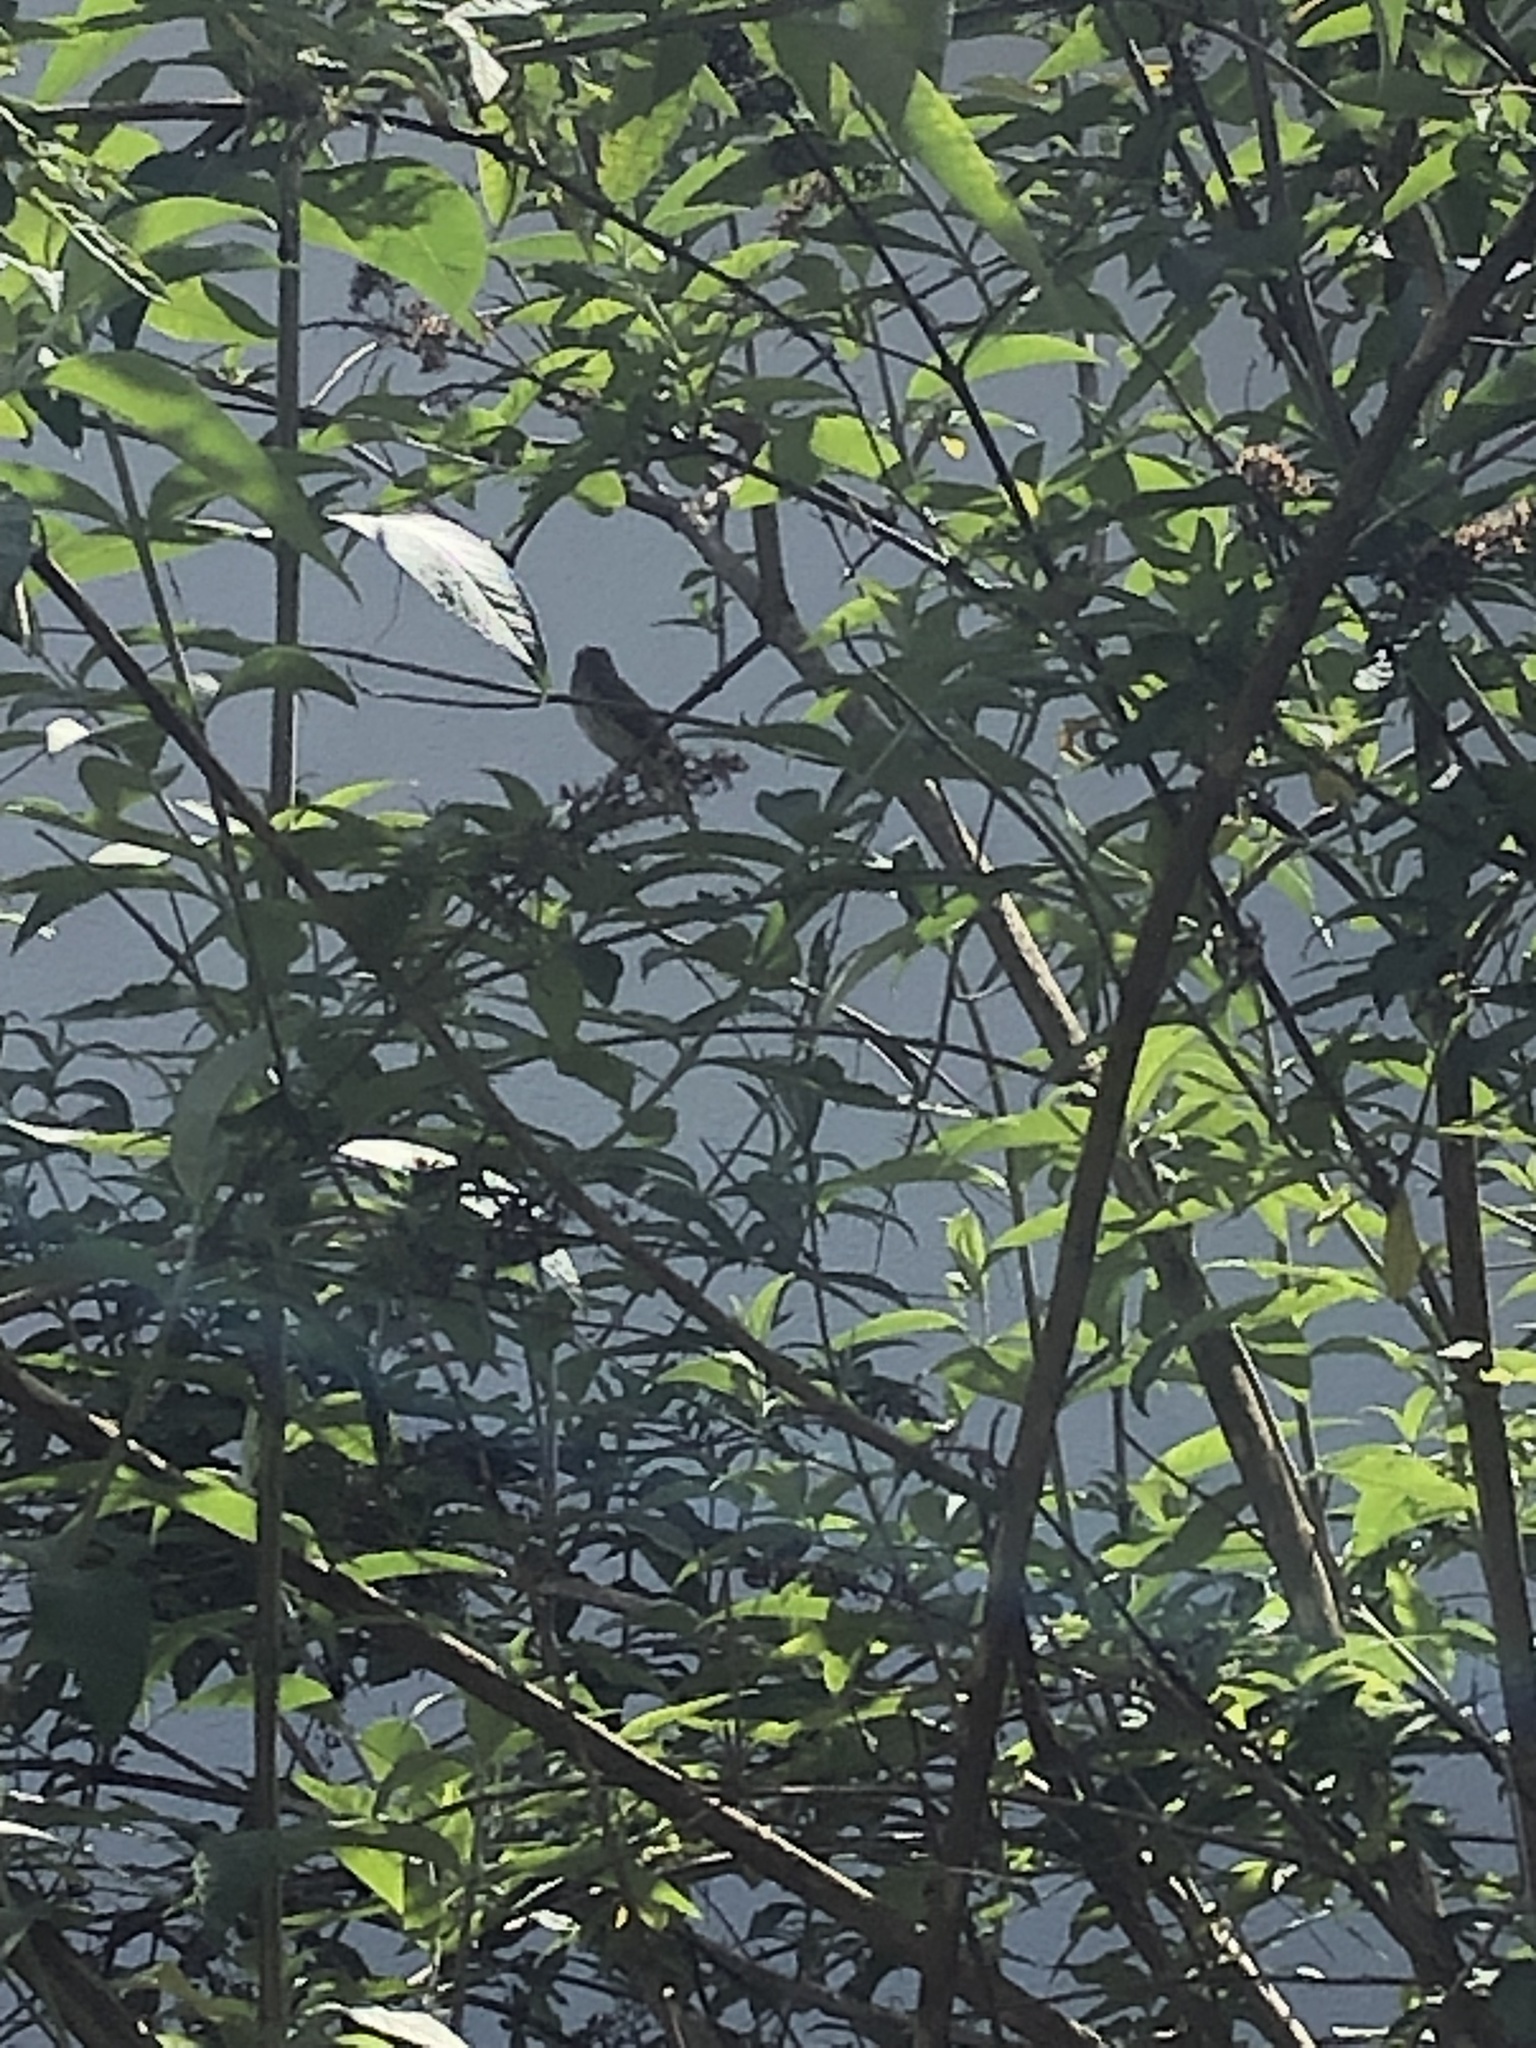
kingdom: Animalia
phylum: Chordata
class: Aves
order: Passeriformes
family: Muscicapidae
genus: Ficedula
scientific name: Ficedula hypoleuca
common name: European pied flycatcher
